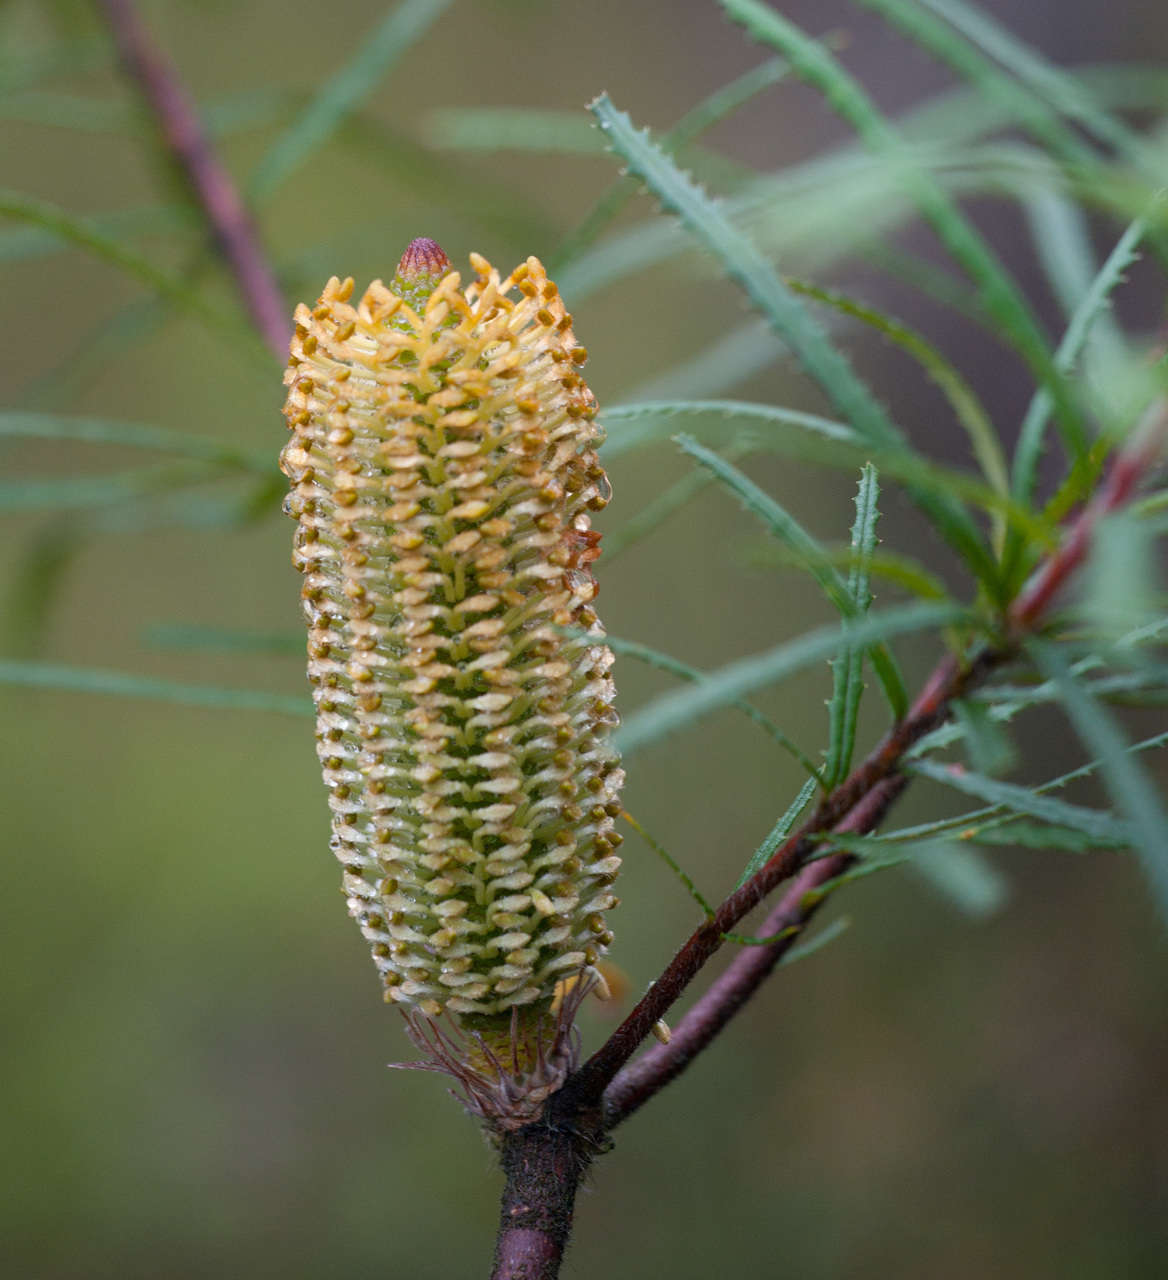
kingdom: Plantae
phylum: Tracheophyta
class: Magnoliopsida
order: Proteales
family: Proteaceae
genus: Banksia
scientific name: Banksia spinulosa
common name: Hairpin banksia
